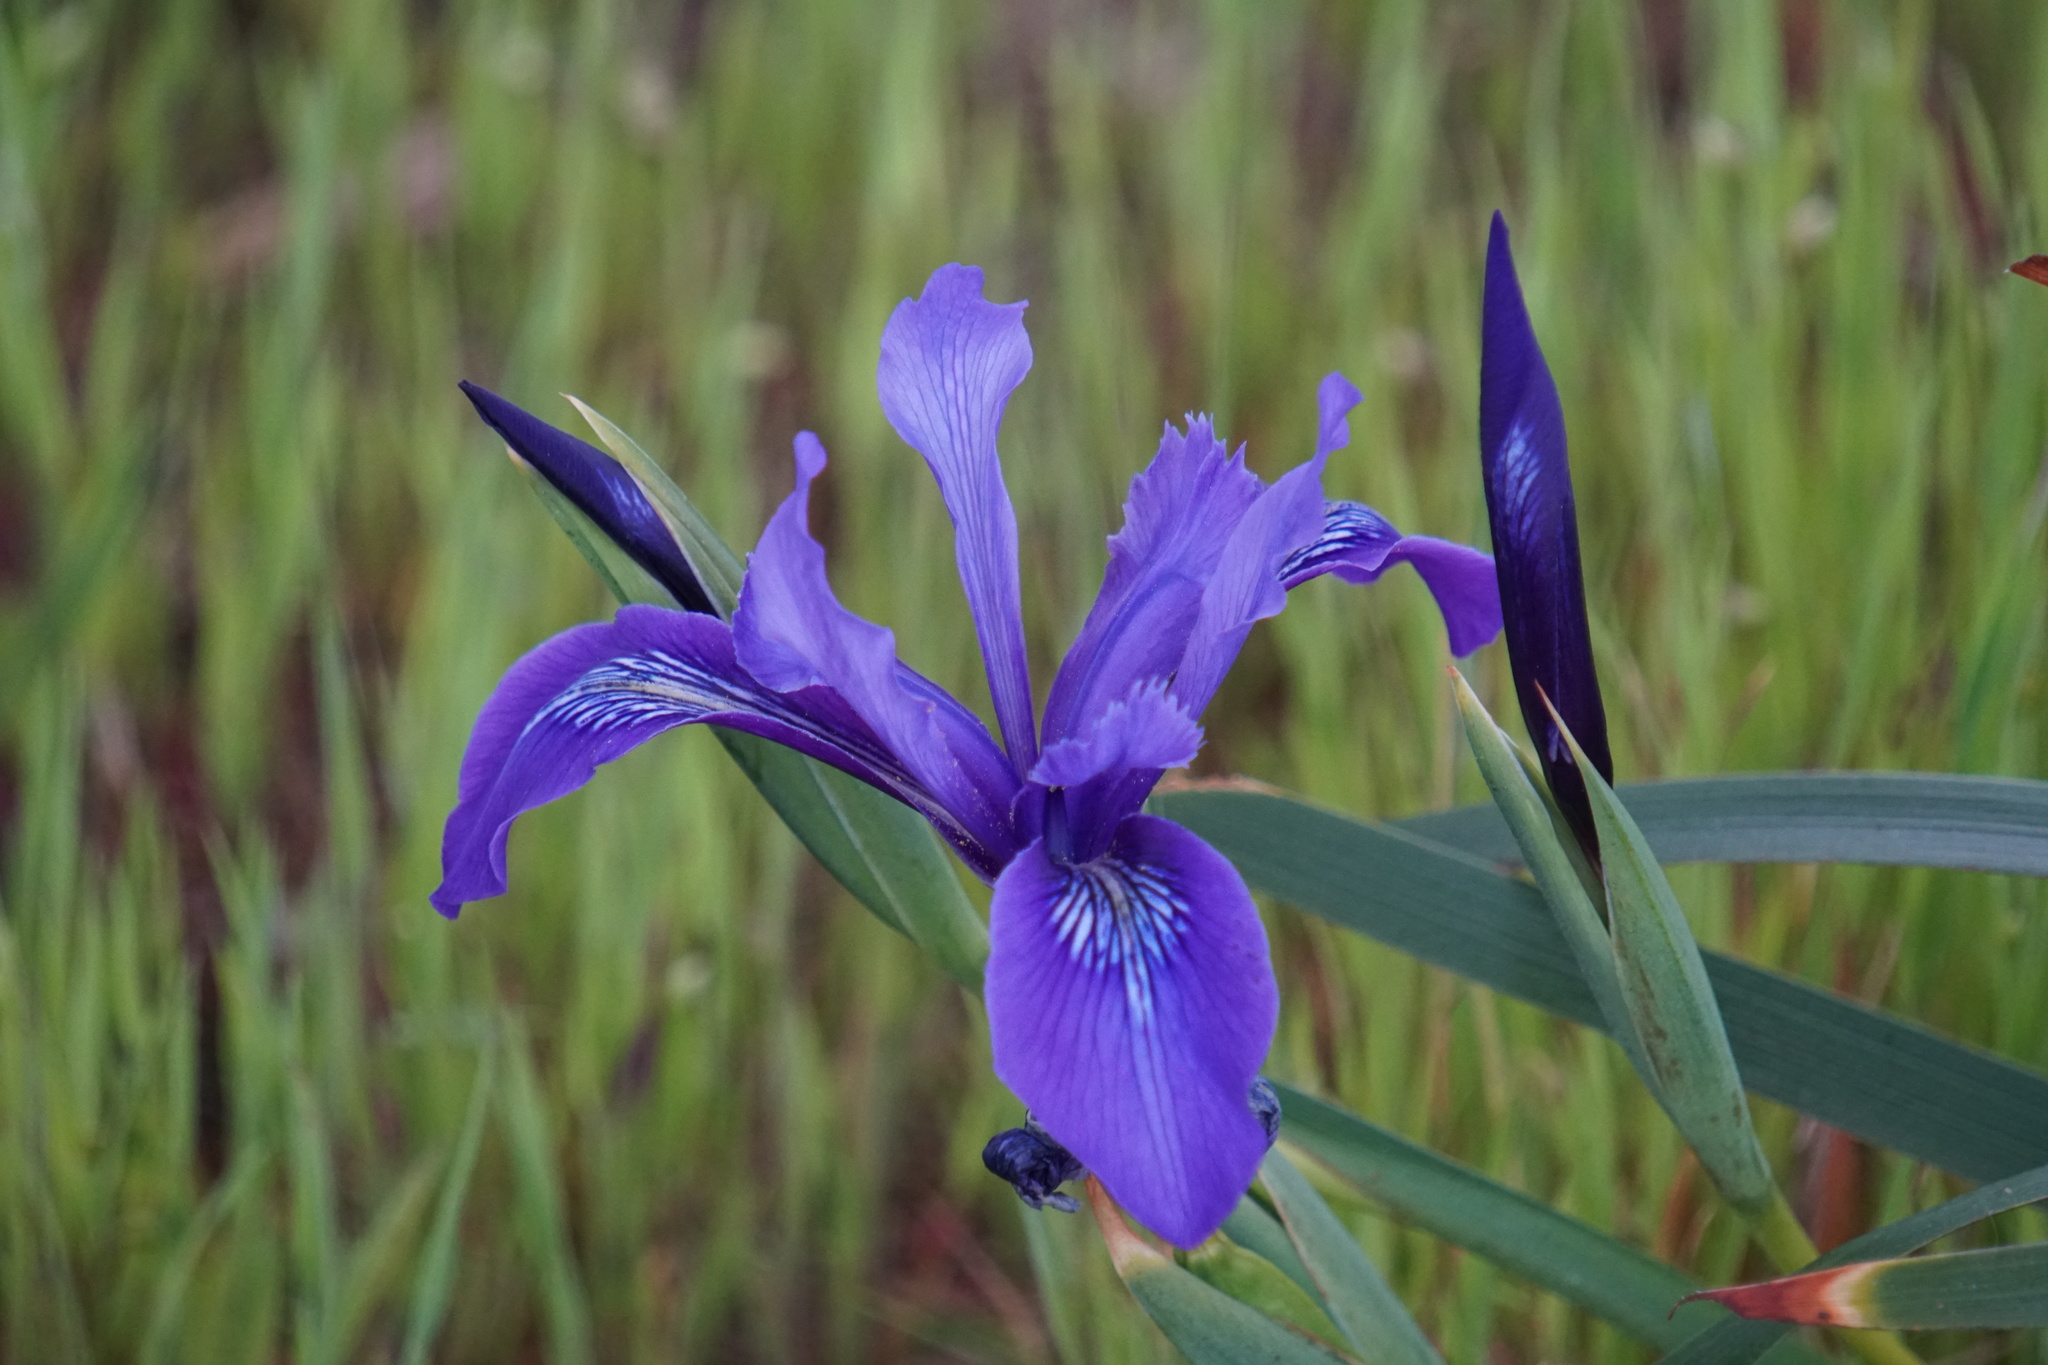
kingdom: Plantae
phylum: Tracheophyta
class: Liliopsida
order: Asparagales
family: Iridaceae
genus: Iris
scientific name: Iris douglasiana
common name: Marin iris
